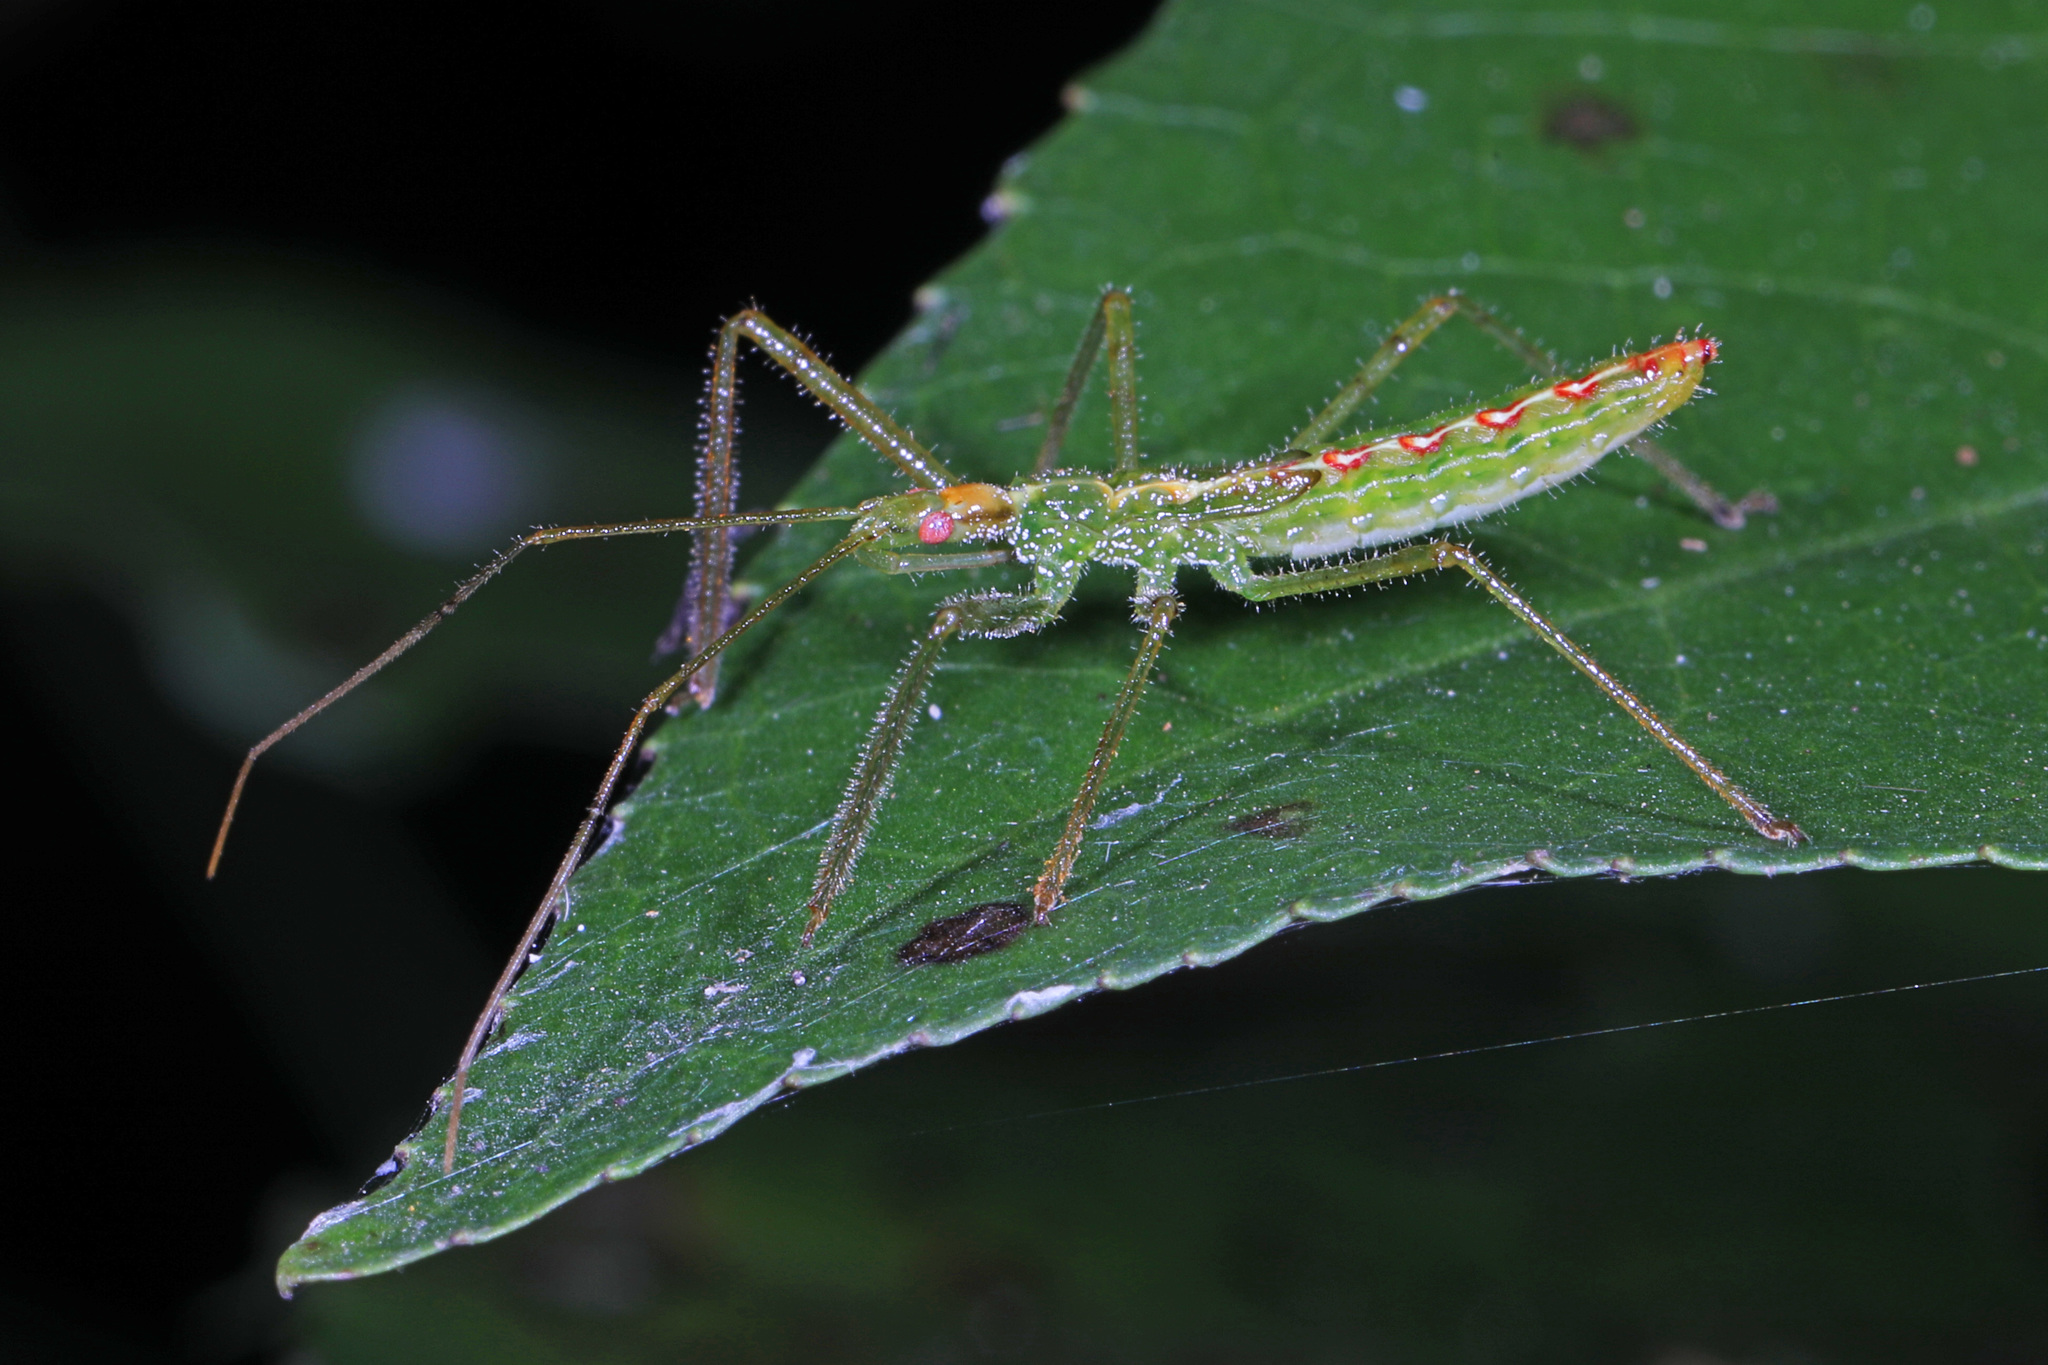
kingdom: Animalia
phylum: Arthropoda
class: Insecta
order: Hemiptera
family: Reduviidae
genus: Zelus
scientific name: Zelus luridus
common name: Pale green assassin bug
